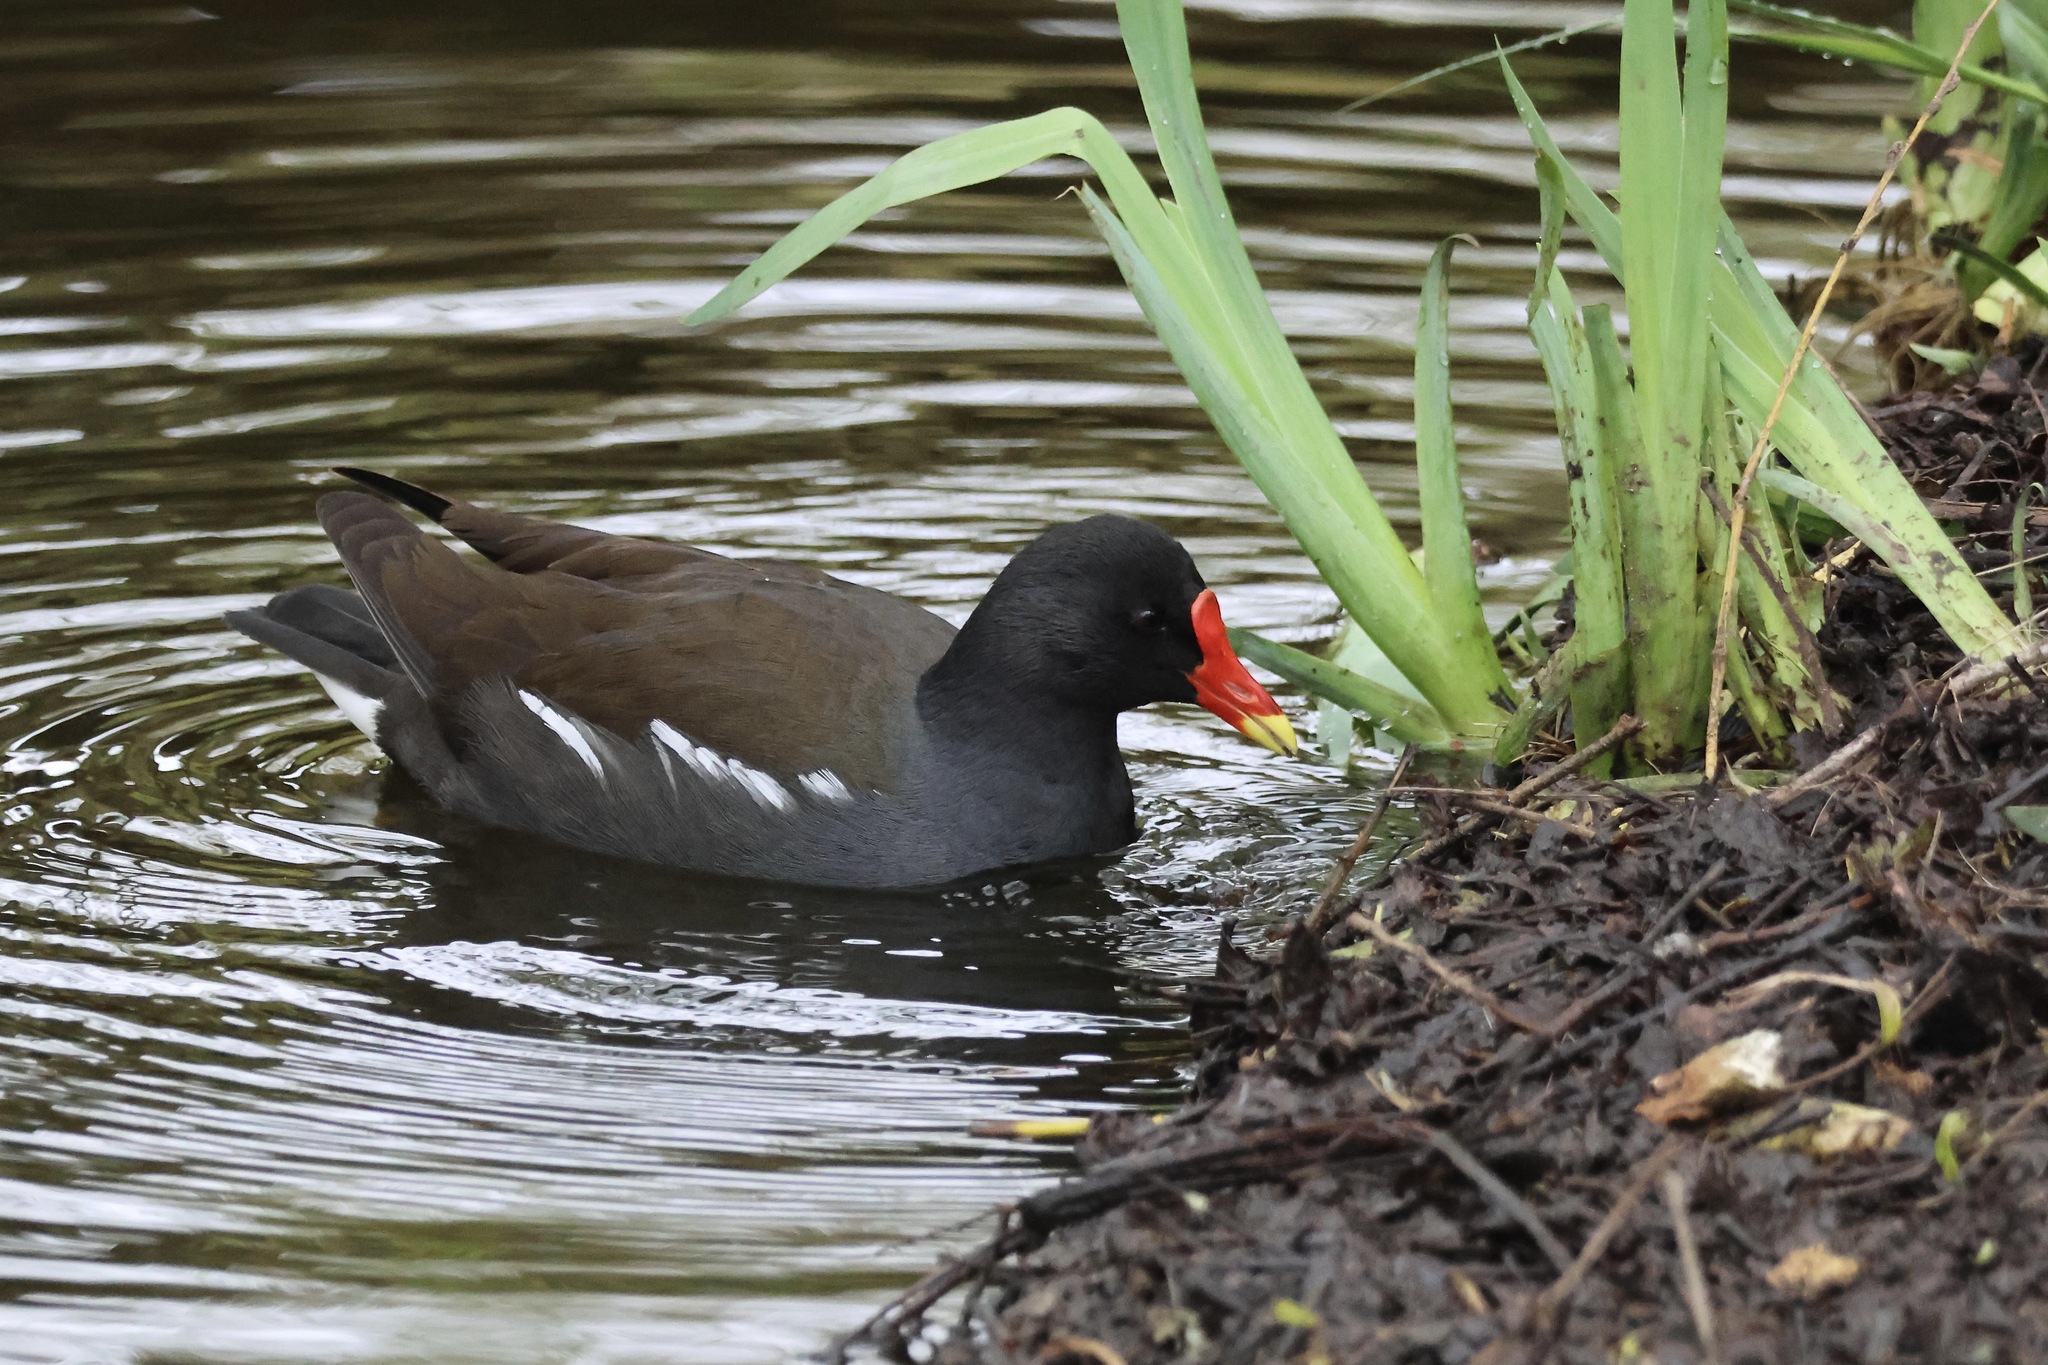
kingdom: Animalia
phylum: Chordata
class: Aves
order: Gruiformes
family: Rallidae
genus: Gallinula
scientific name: Gallinula chloropus
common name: Common moorhen
